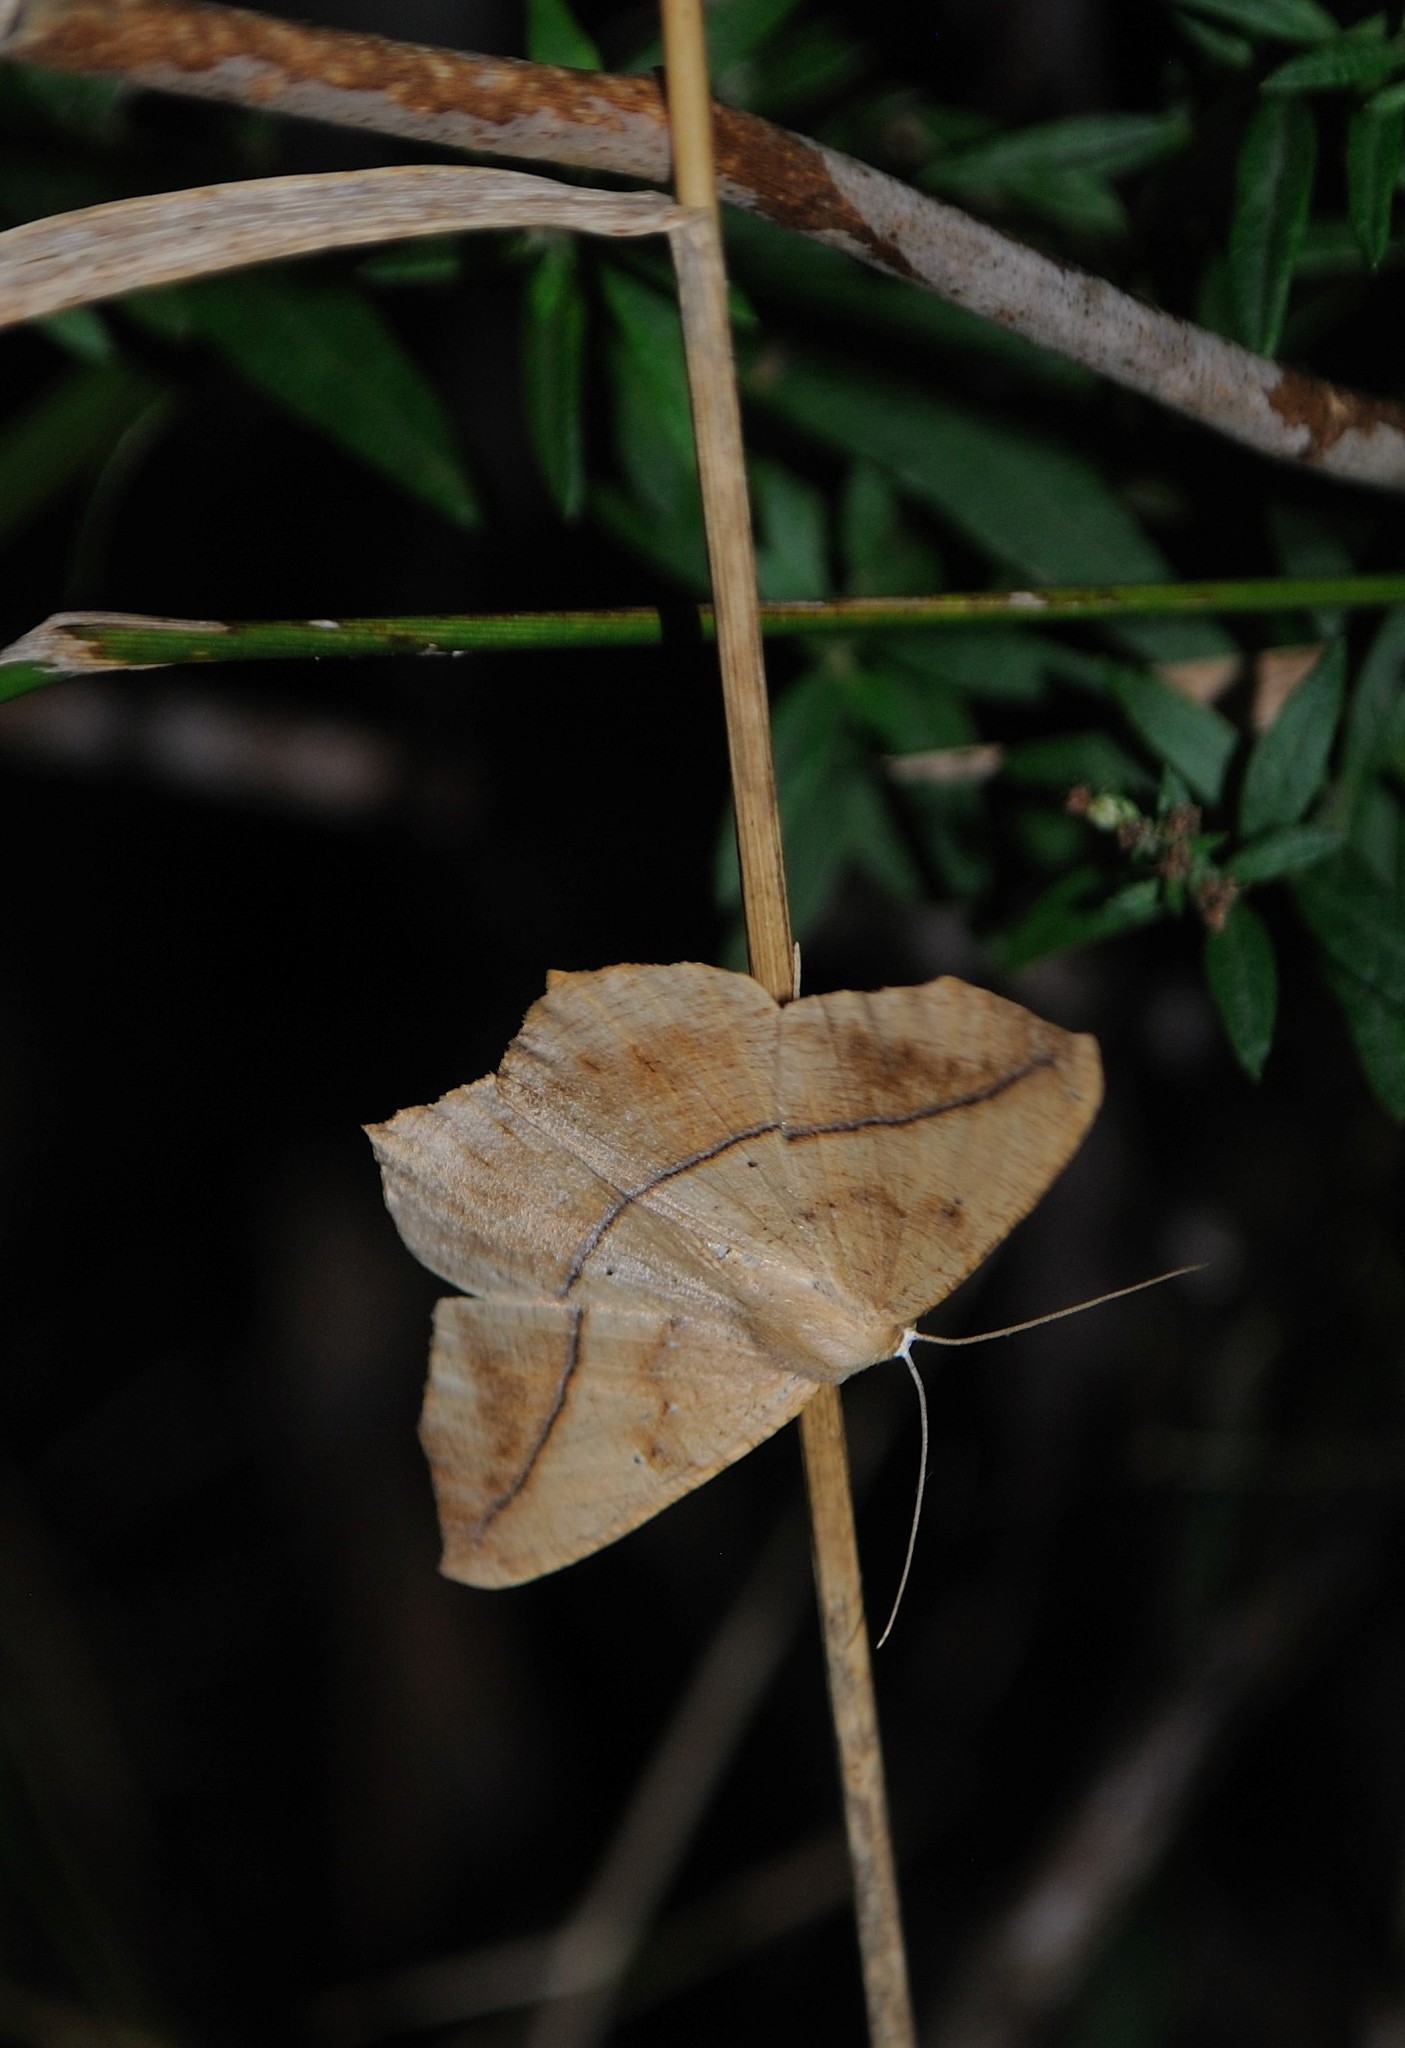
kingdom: Animalia
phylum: Arthropoda
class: Insecta
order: Lepidoptera
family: Geometridae
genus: Prochoerodes
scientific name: Prochoerodes lineola
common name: Large maple spanworm
